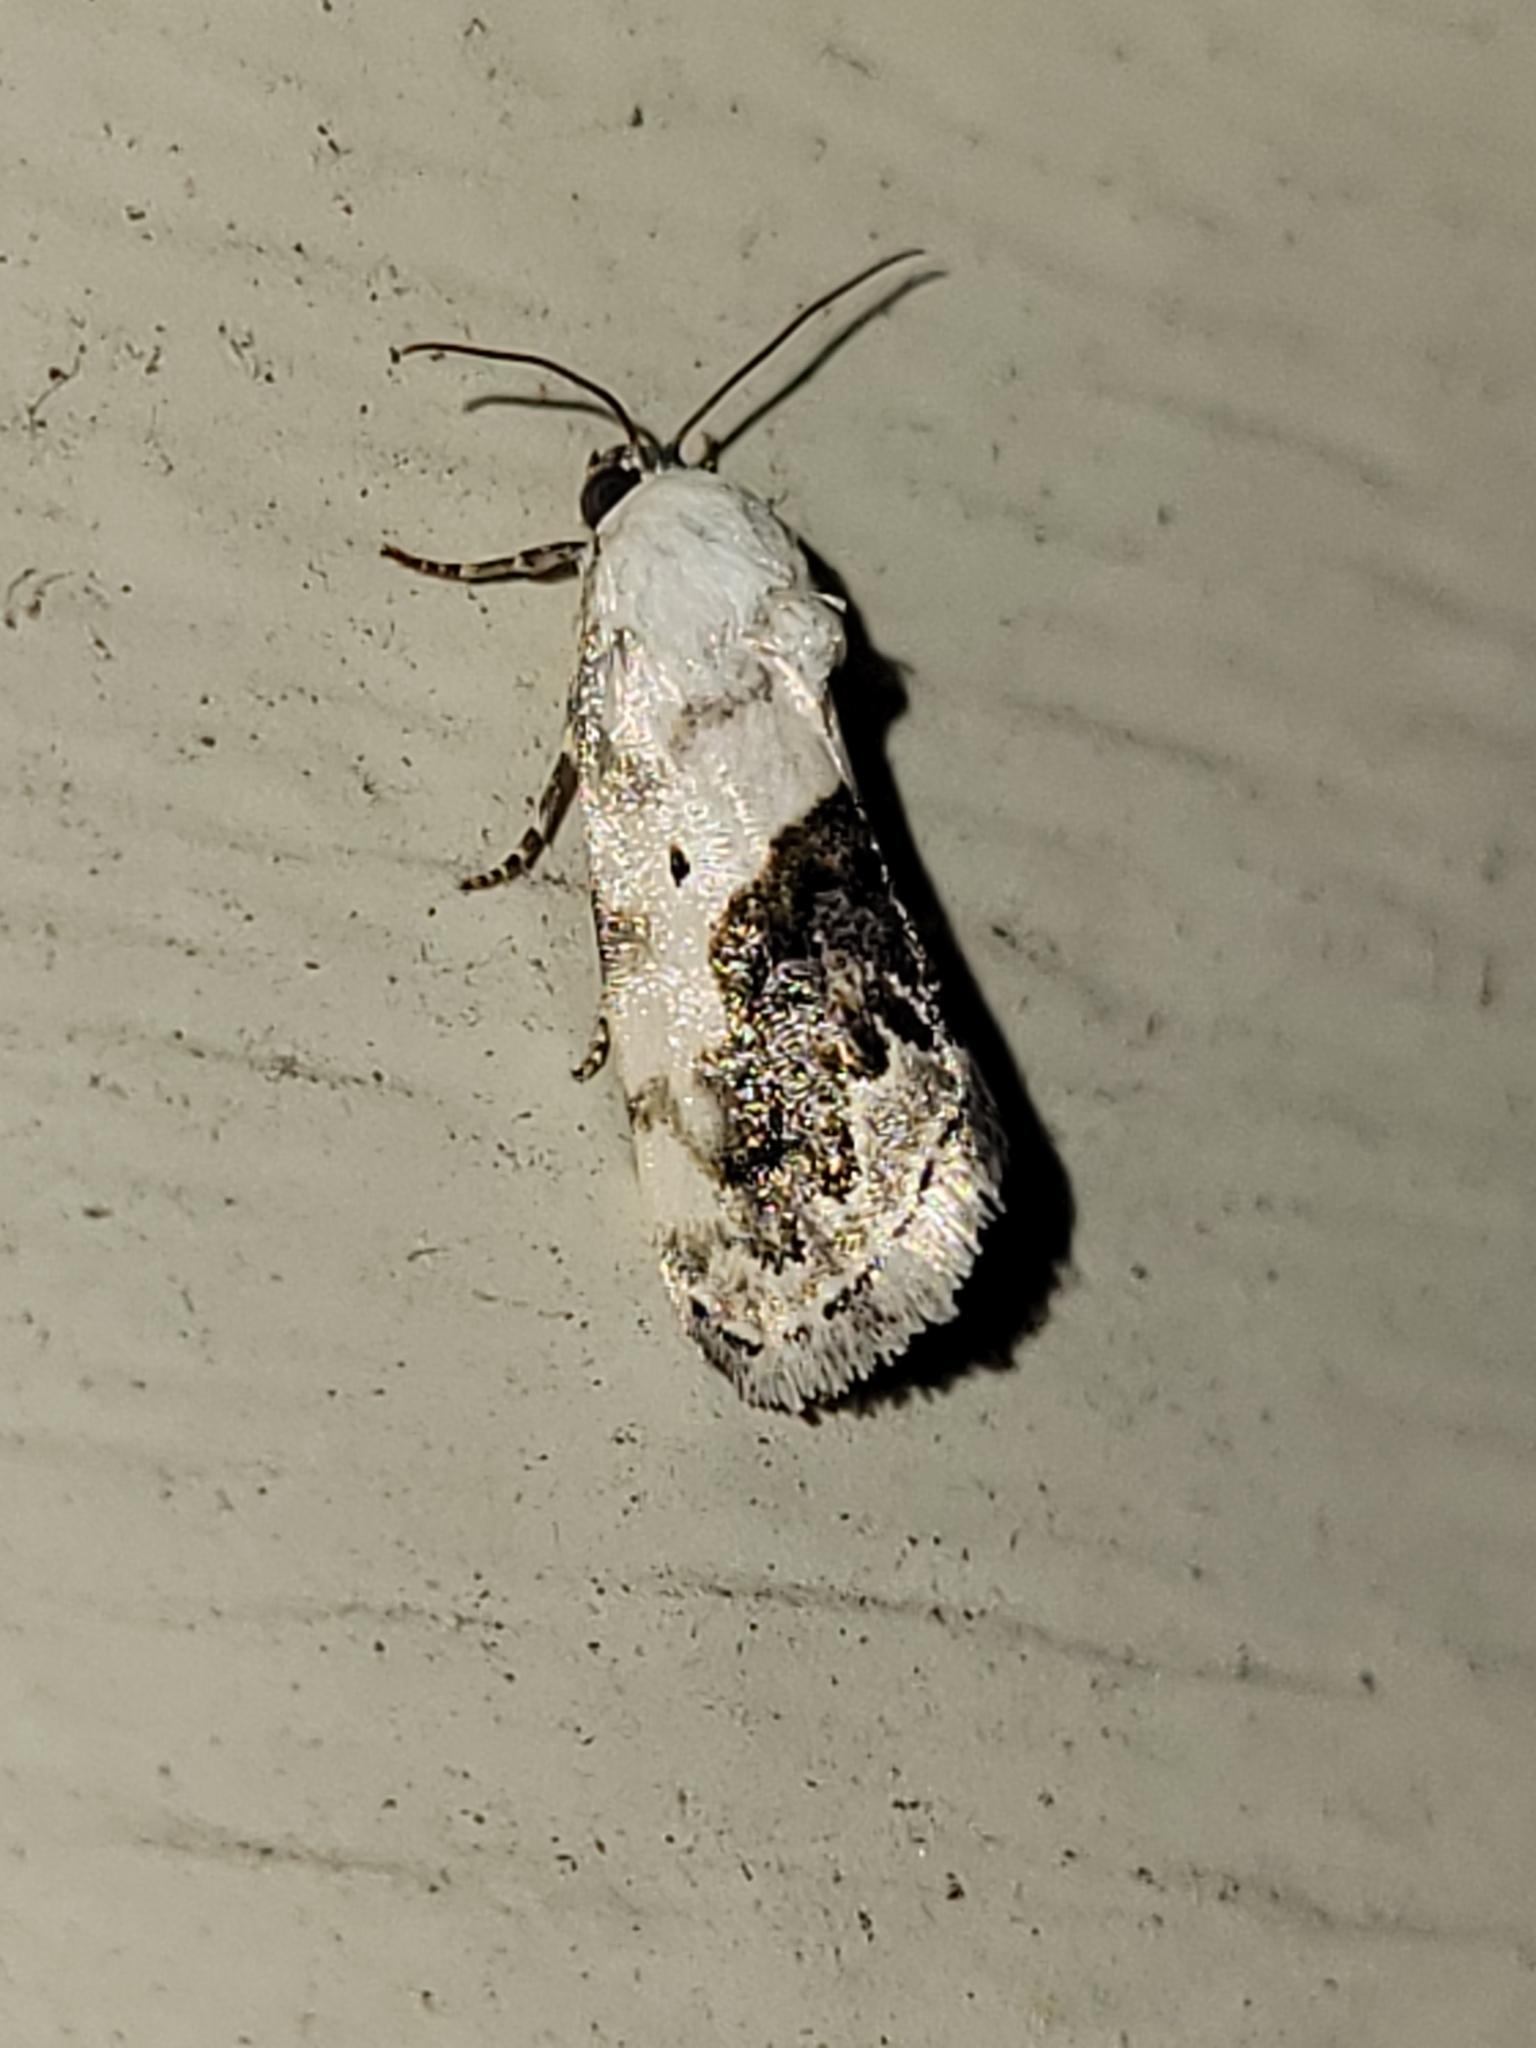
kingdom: Animalia
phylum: Arthropoda
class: Insecta
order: Lepidoptera
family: Noctuidae
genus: Acontia
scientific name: Acontia erastrioides
